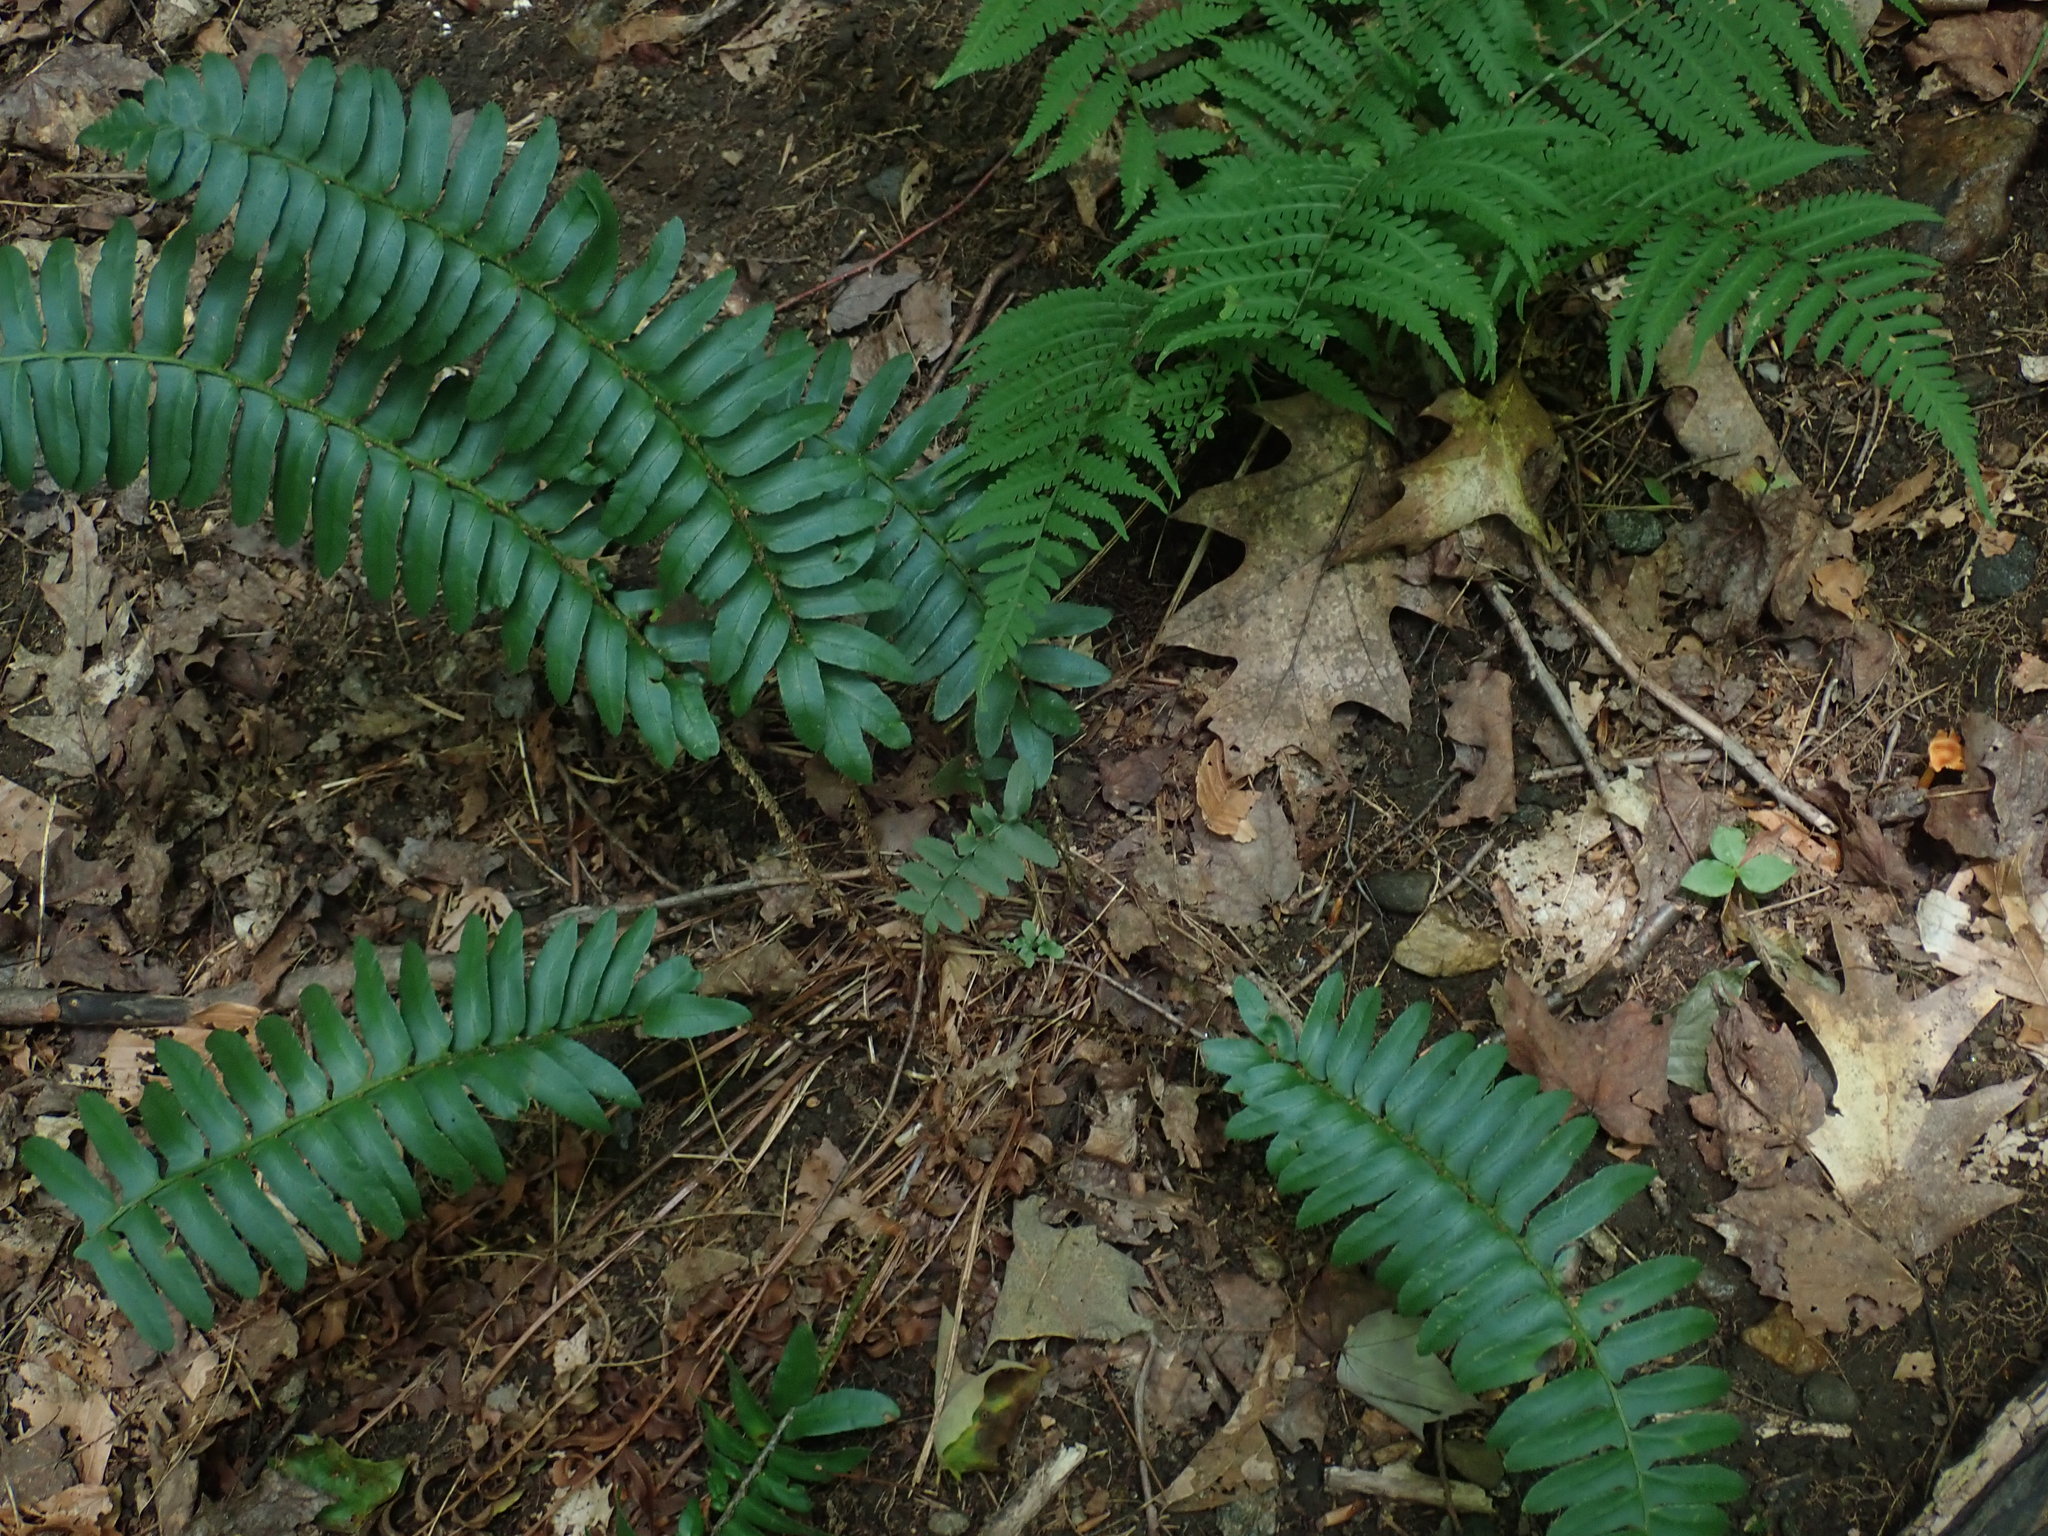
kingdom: Plantae
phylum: Tracheophyta
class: Polypodiopsida
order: Polypodiales
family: Dryopteridaceae
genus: Polystichum
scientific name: Polystichum acrostichoides
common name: Christmas fern
